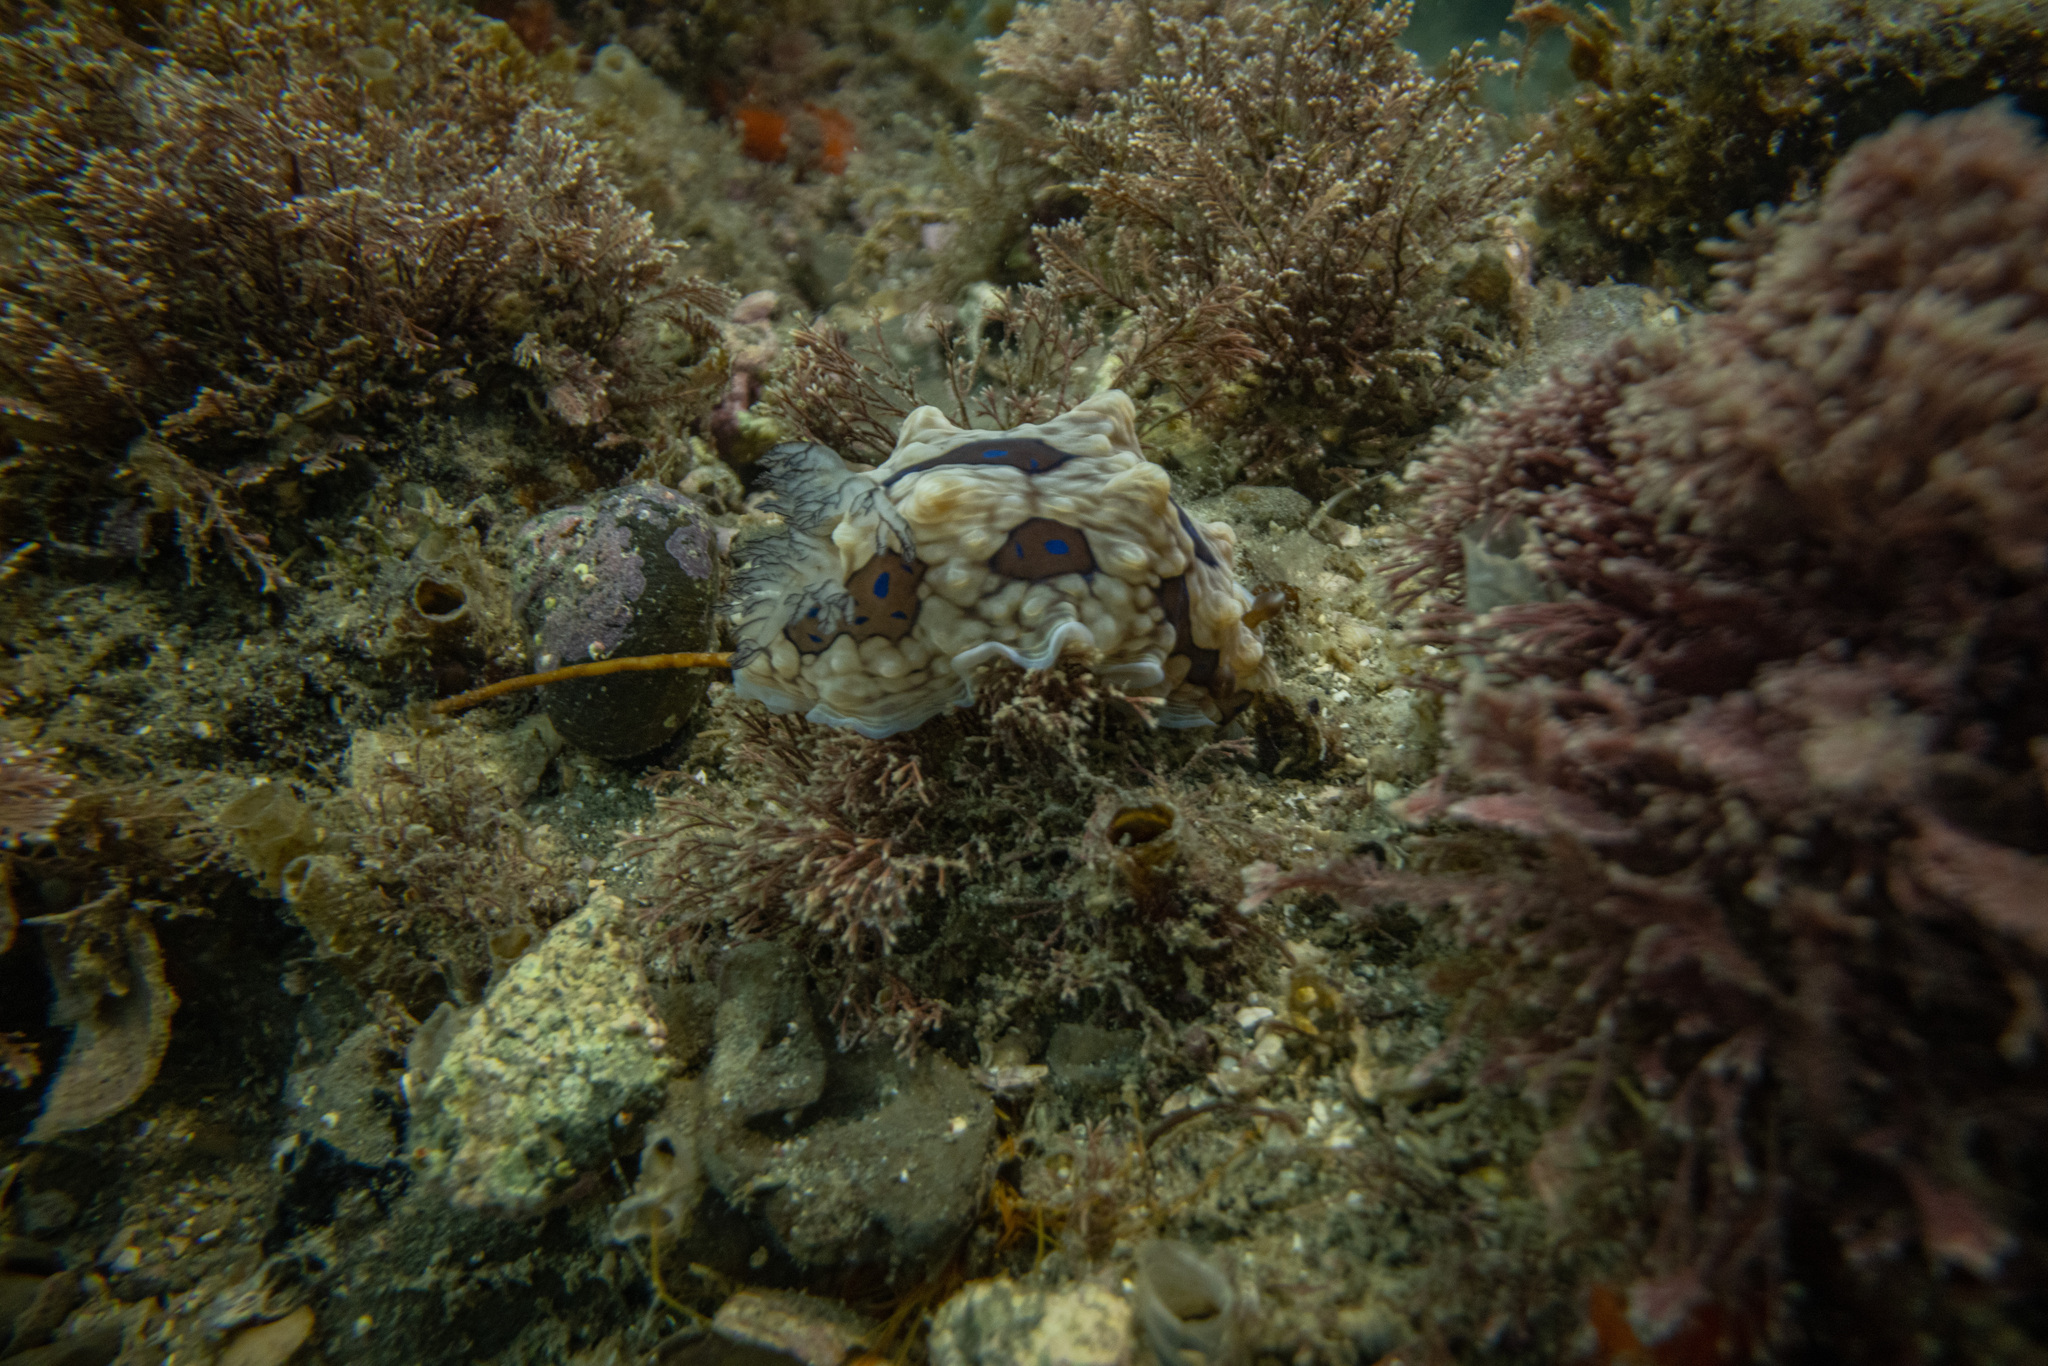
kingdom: Animalia
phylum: Mollusca
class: Gastropoda
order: Nudibranchia
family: Dendrodorididae
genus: Dendrodoris
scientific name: Dendrodoris krusensternii
